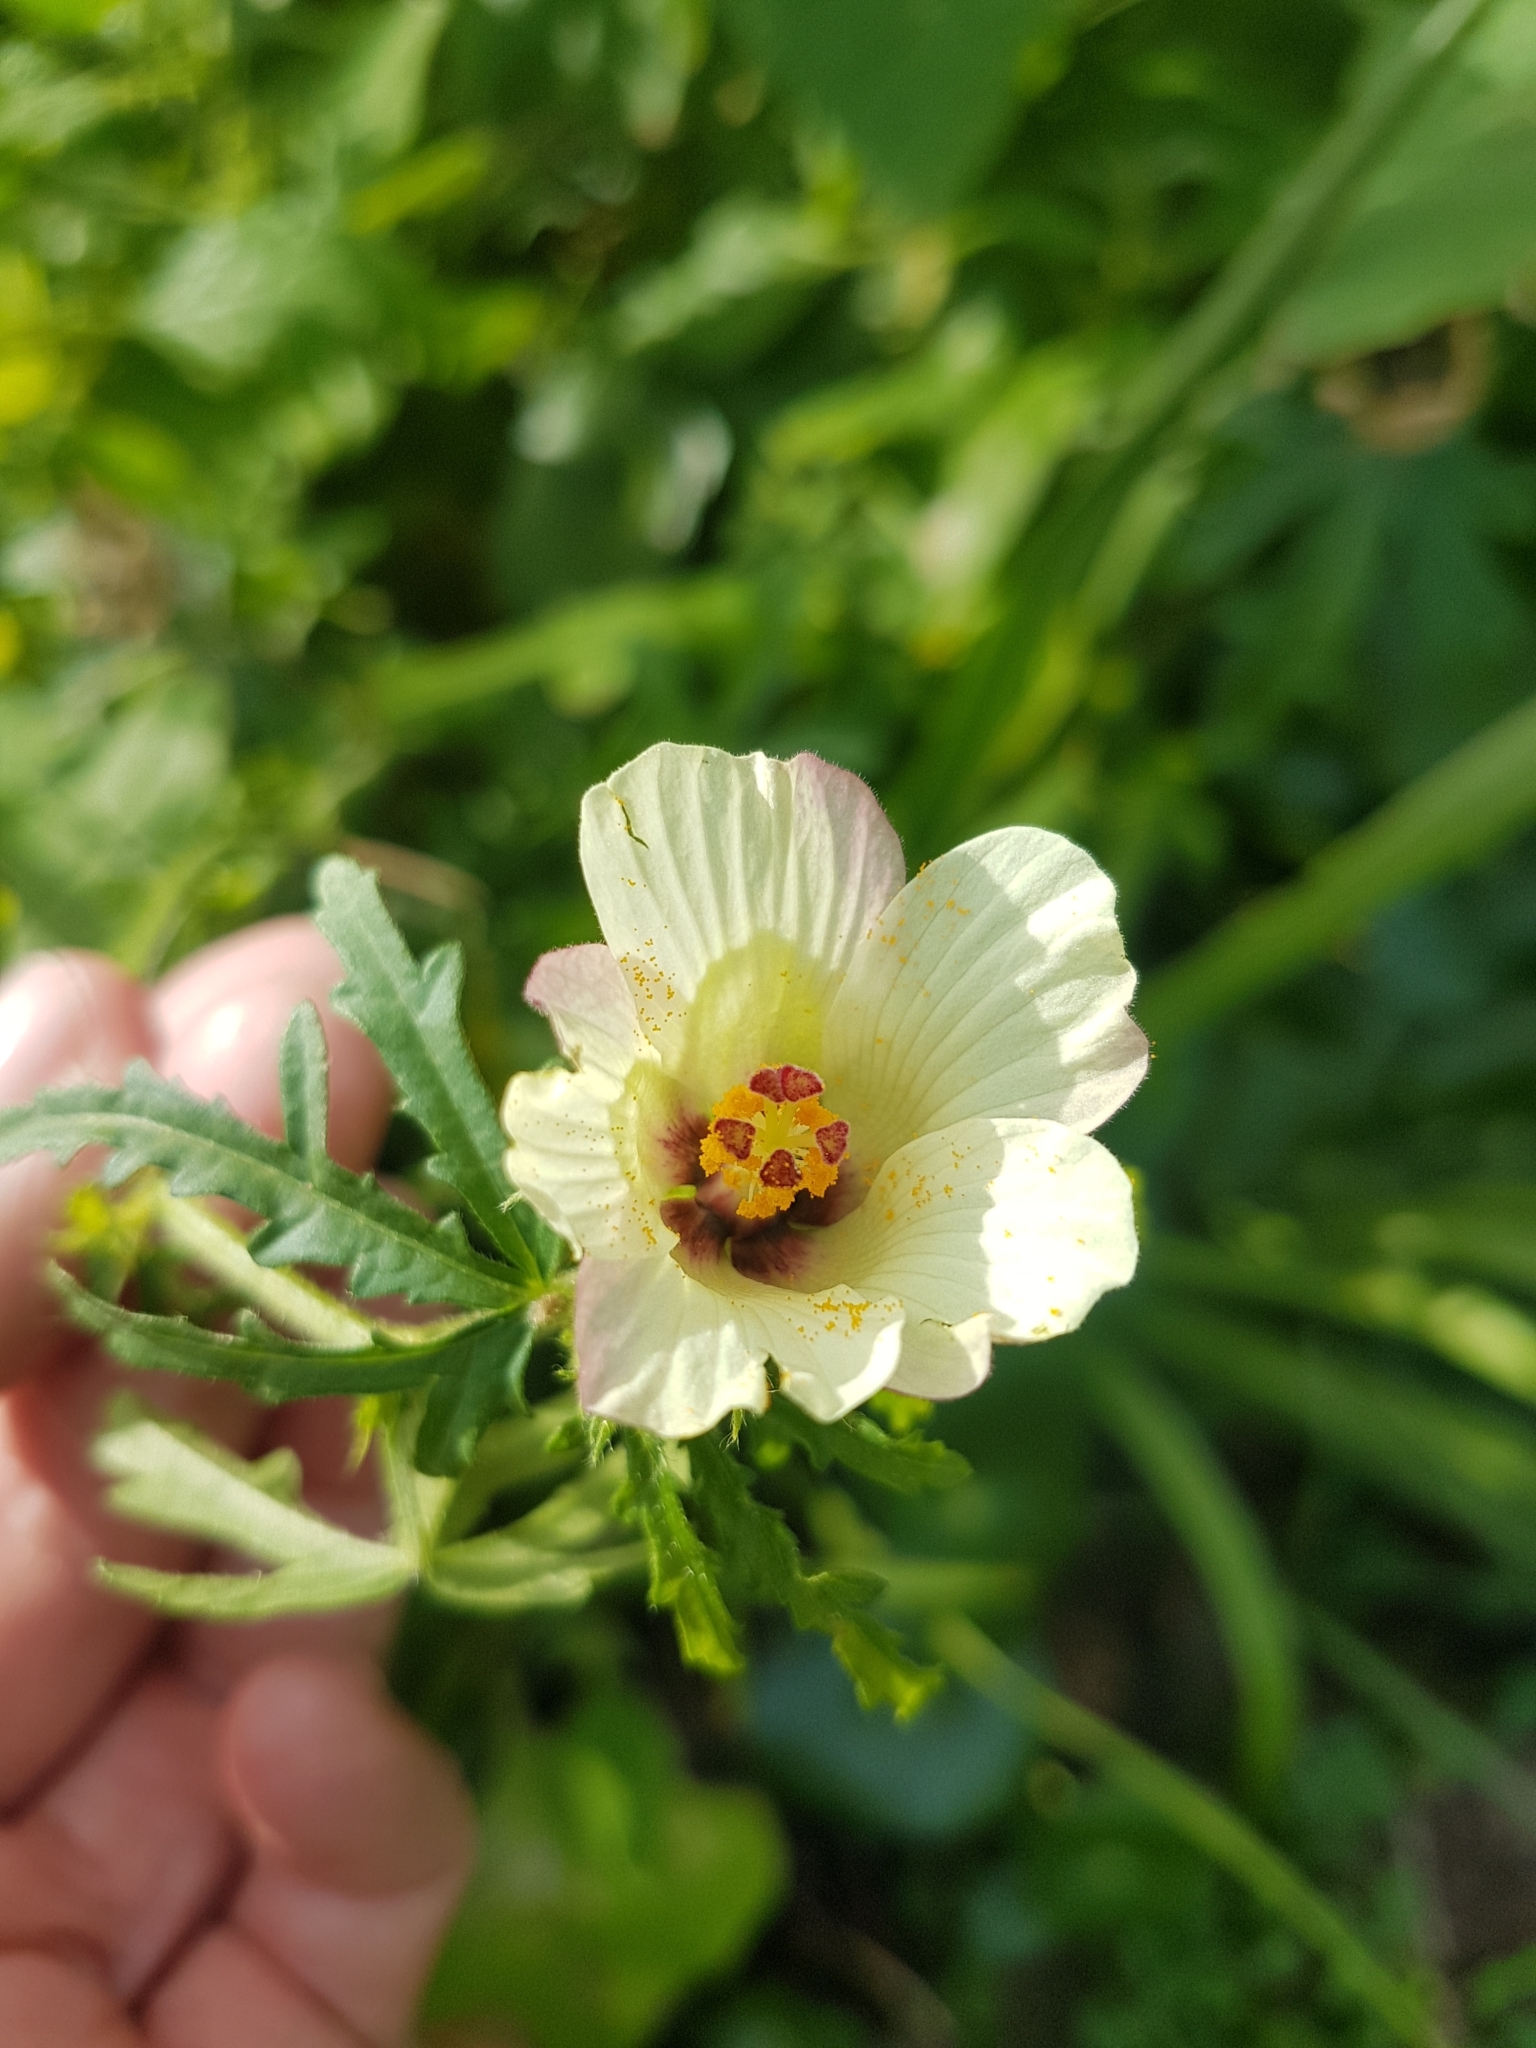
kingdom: Plantae
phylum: Tracheophyta
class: Magnoliopsida
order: Malvales
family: Malvaceae
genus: Hibiscus
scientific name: Hibiscus richardsonii
